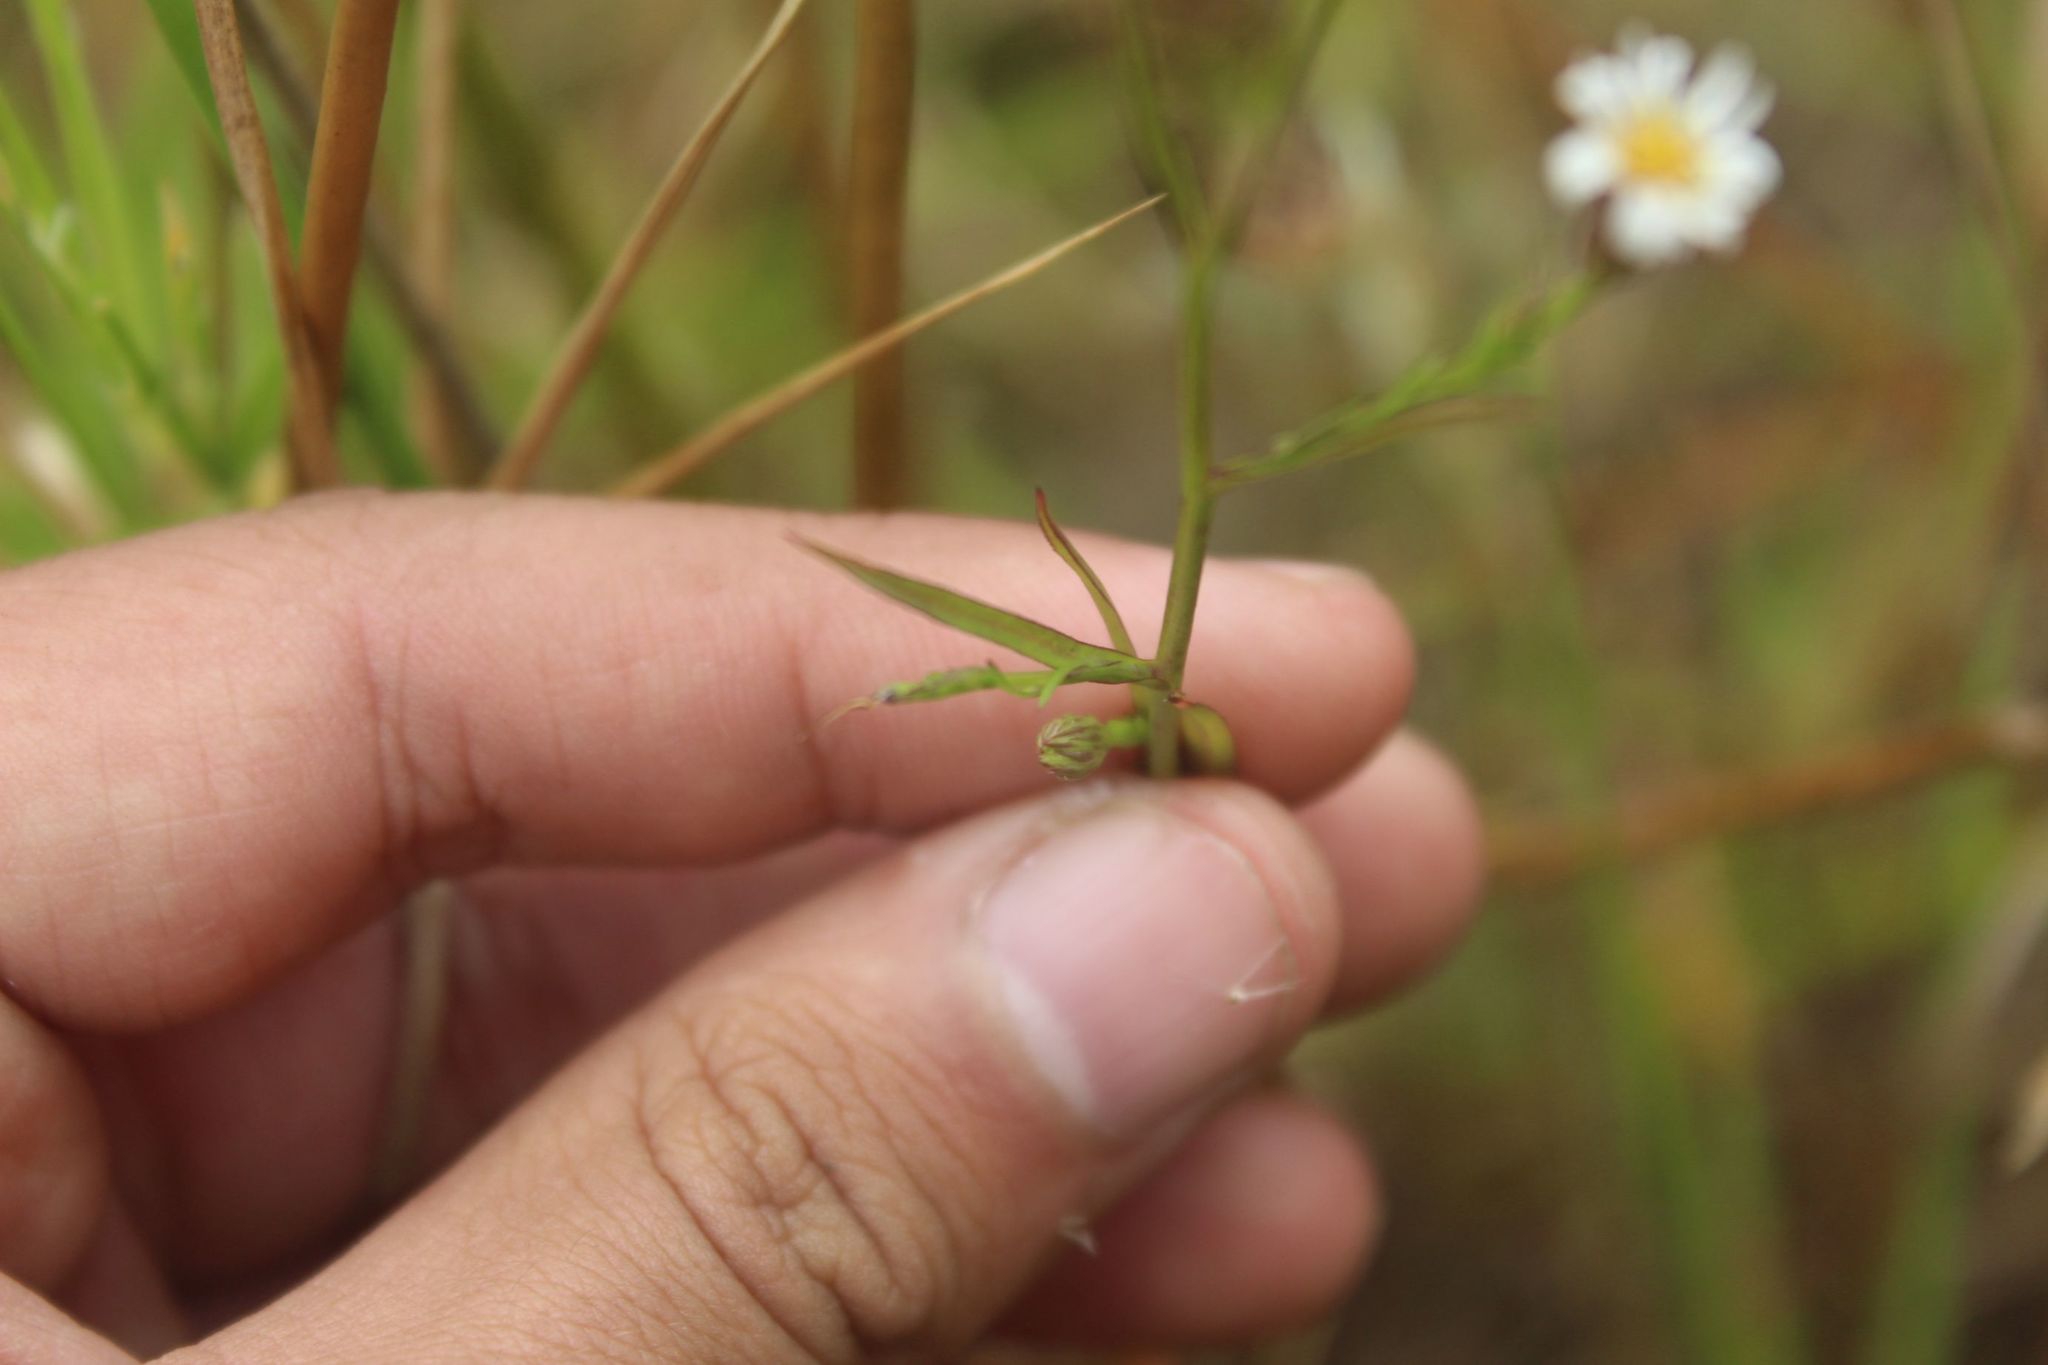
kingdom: Plantae
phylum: Tracheophyta
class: Magnoliopsida
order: Asterales
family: Asteraceae
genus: Symphyotrichum
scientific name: Symphyotrichum subulatum
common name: Annual saltmarsh aster
